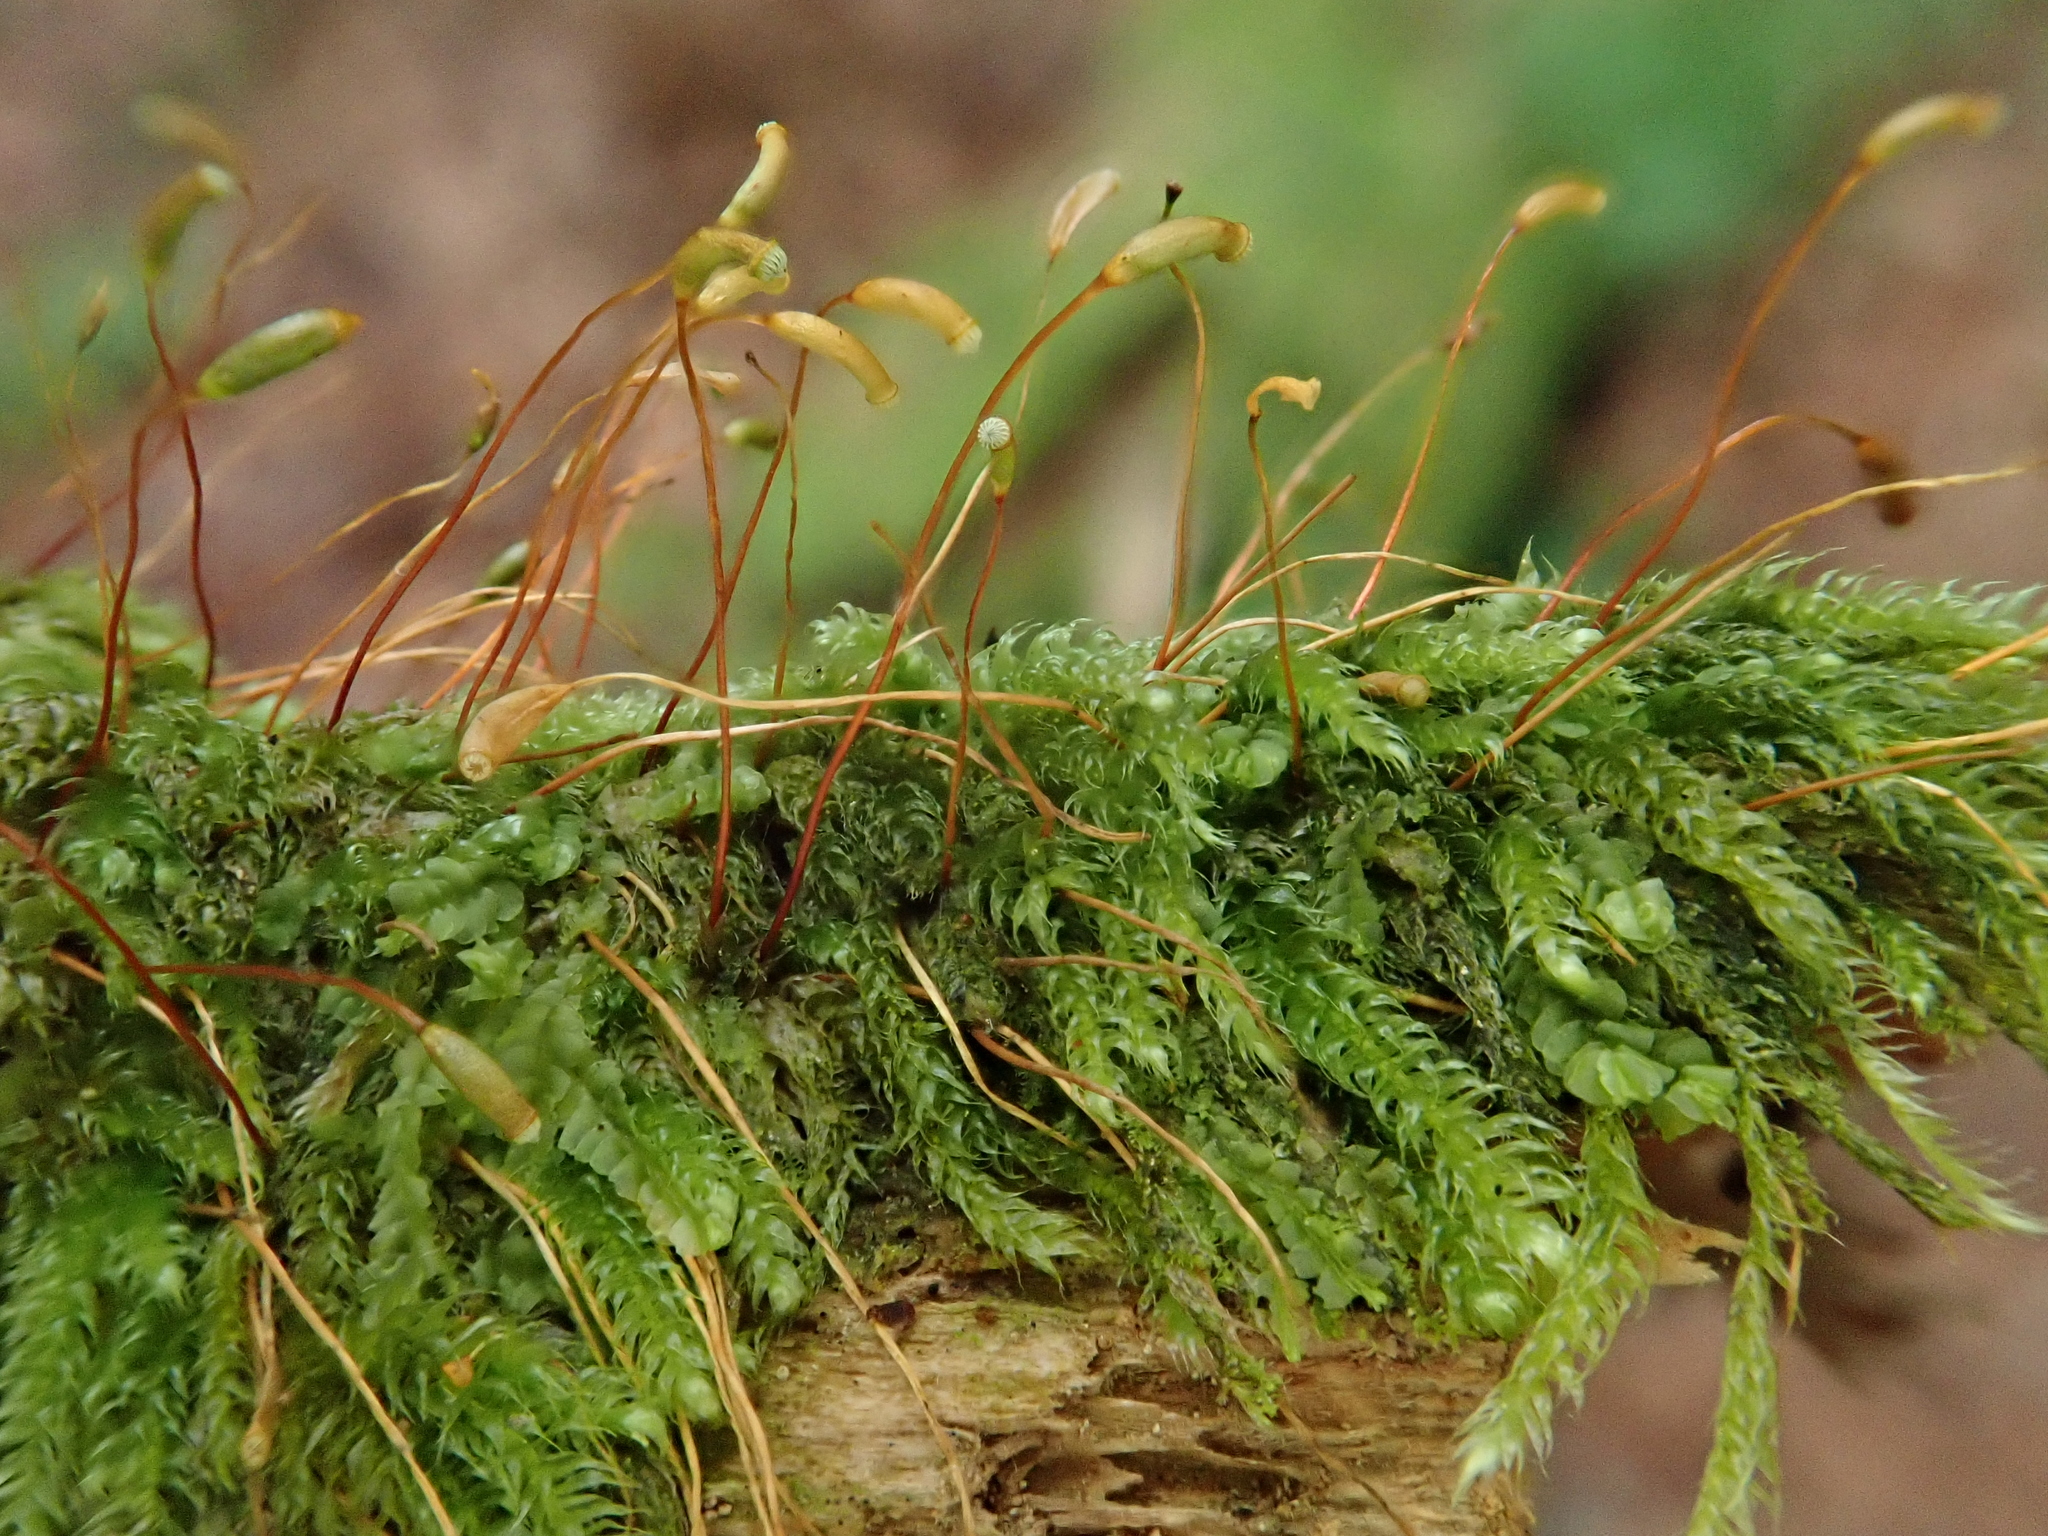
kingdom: Plantae
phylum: Bryophyta
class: Bryopsida
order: Hypnales
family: Plagiotheciaceae
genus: Herzogiella
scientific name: Herzogiella seligeri
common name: Silesian feather-moss
